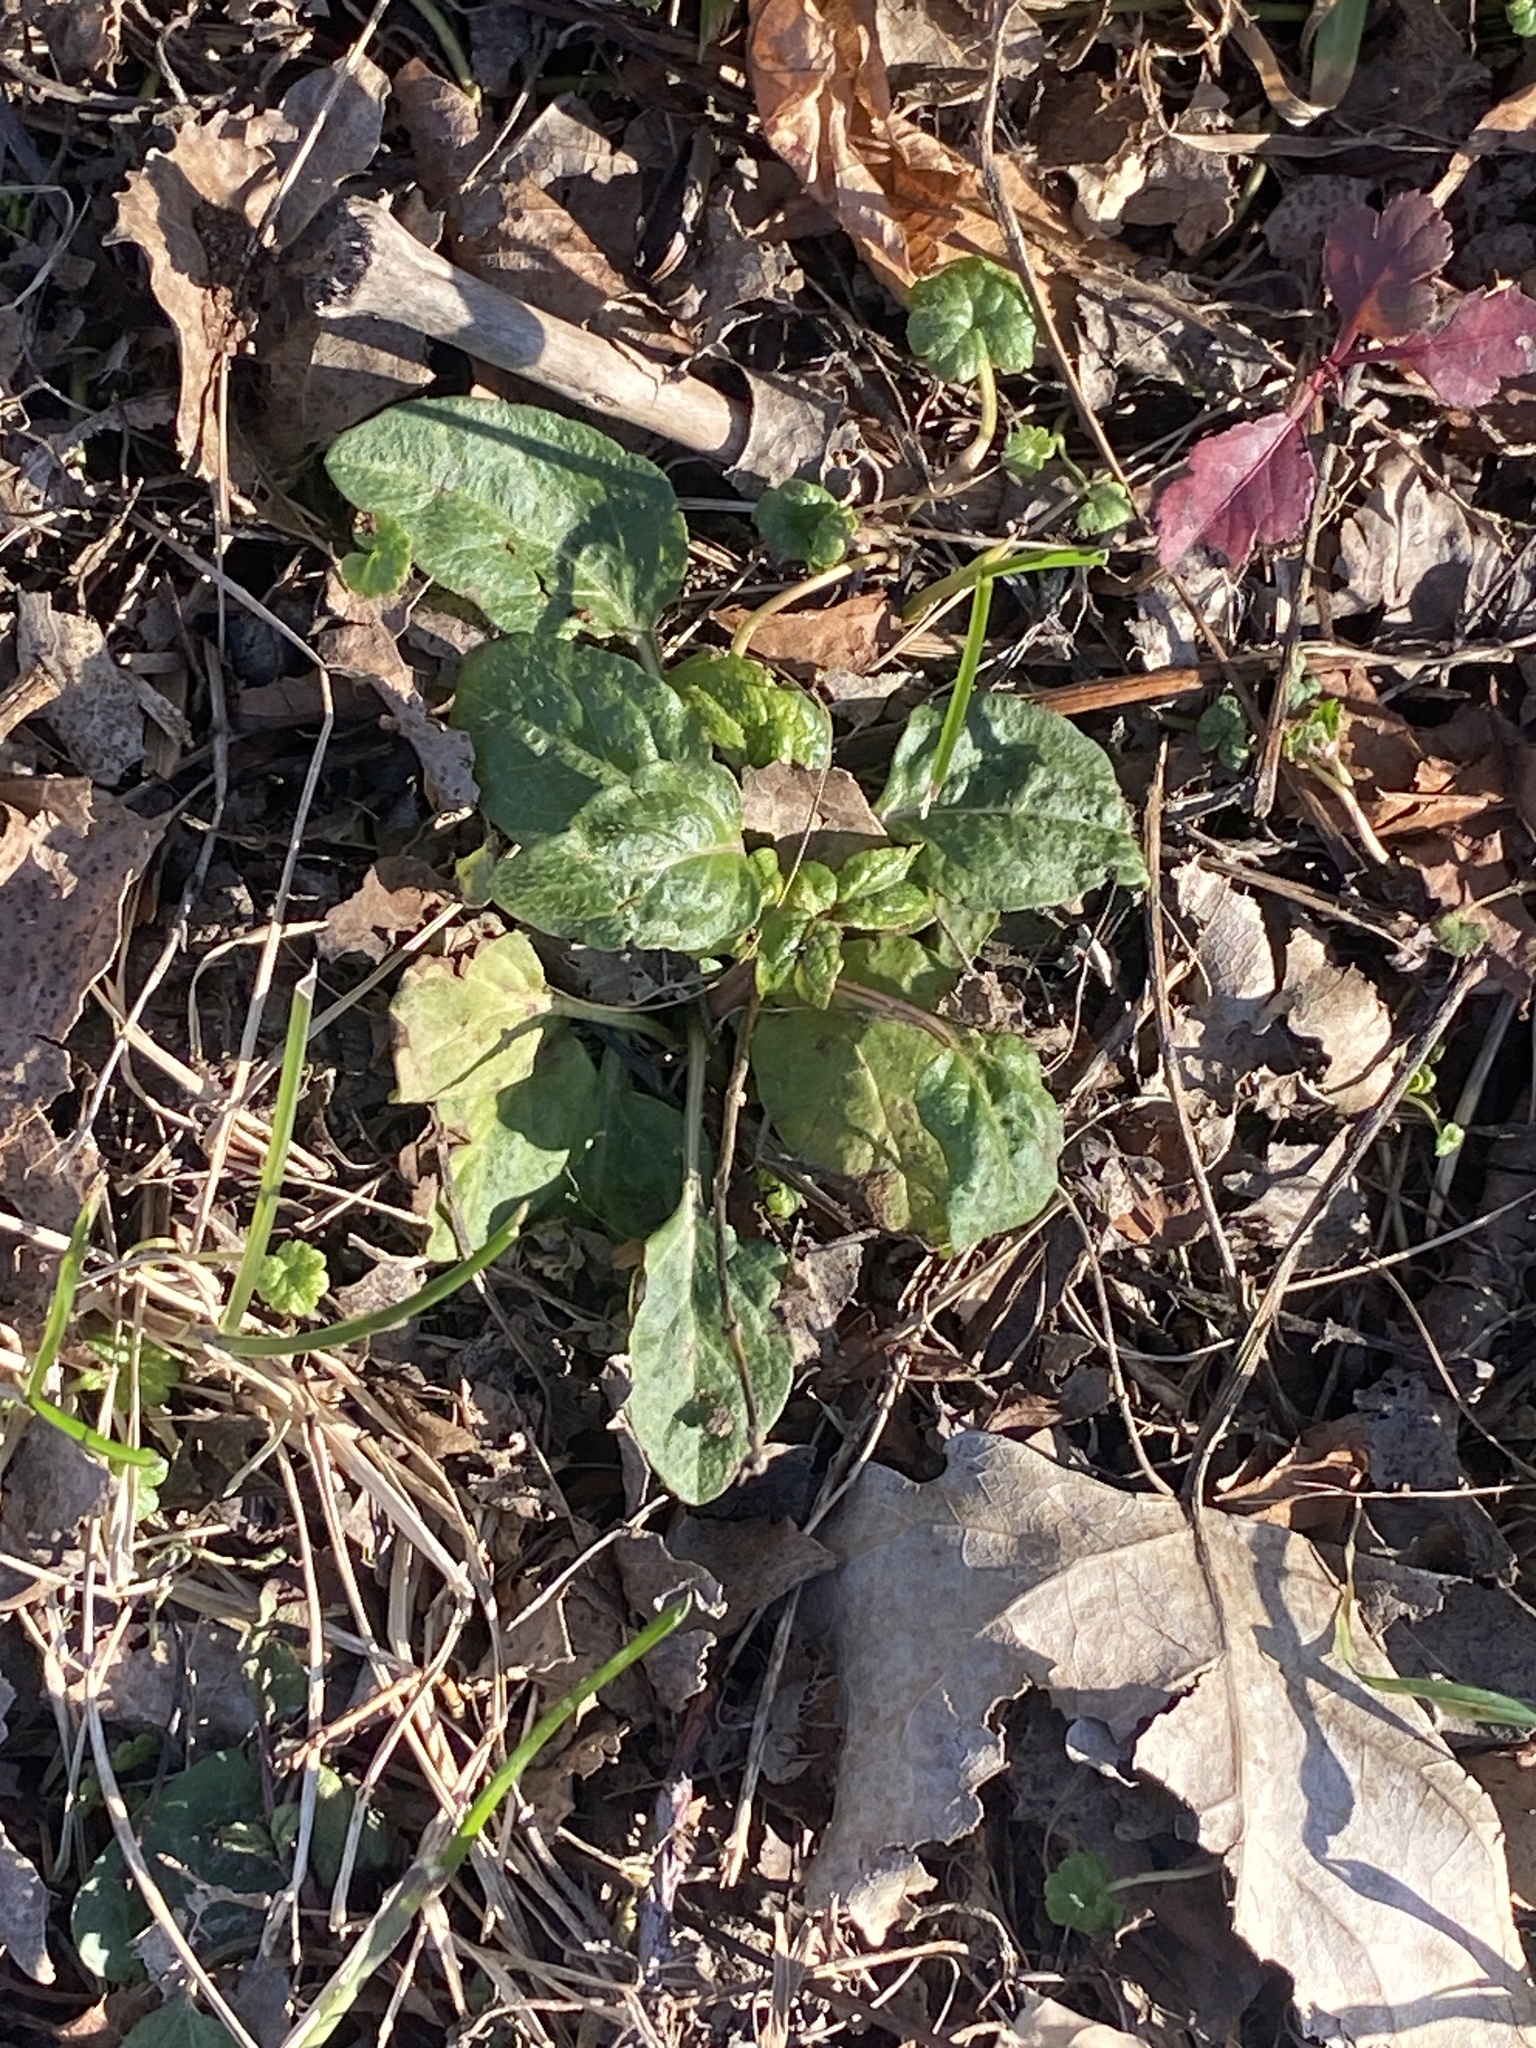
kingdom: Plantae
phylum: Tracheophyta
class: Magnoliopsida
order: Lamiales
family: Lamiaceae
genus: Prunella
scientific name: Prunella vulgaris
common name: Heal-all
